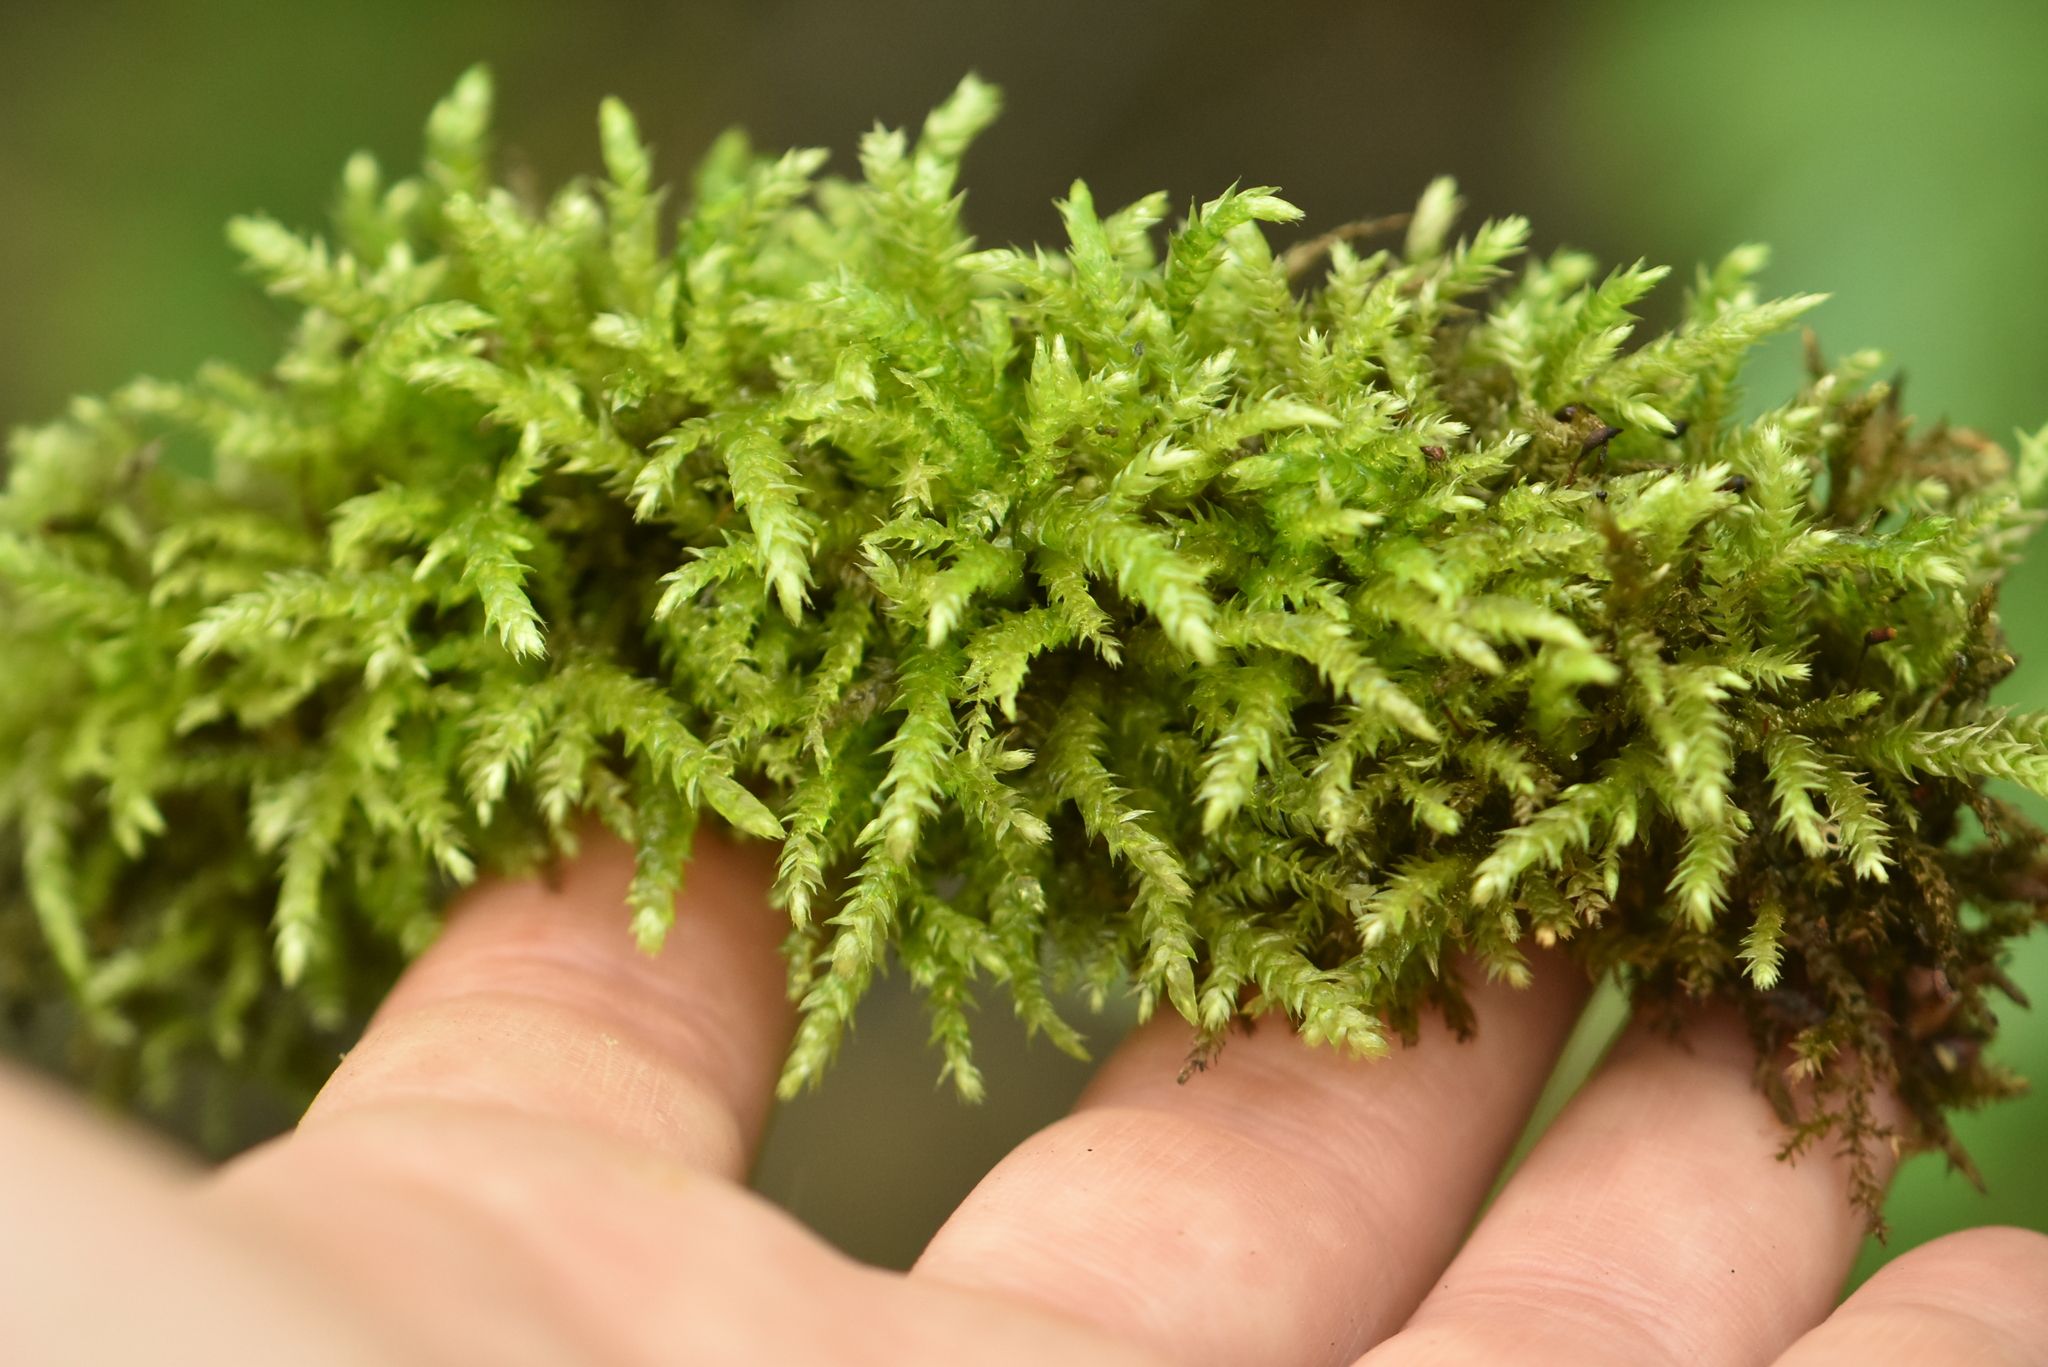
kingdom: Plantae
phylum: Bryophyta
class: Bryopsida
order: Hypnales
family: Brachytheciaceae
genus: Brachythecium
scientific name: Brachythecium rutabulum
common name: Rough-stalked feather-moss
